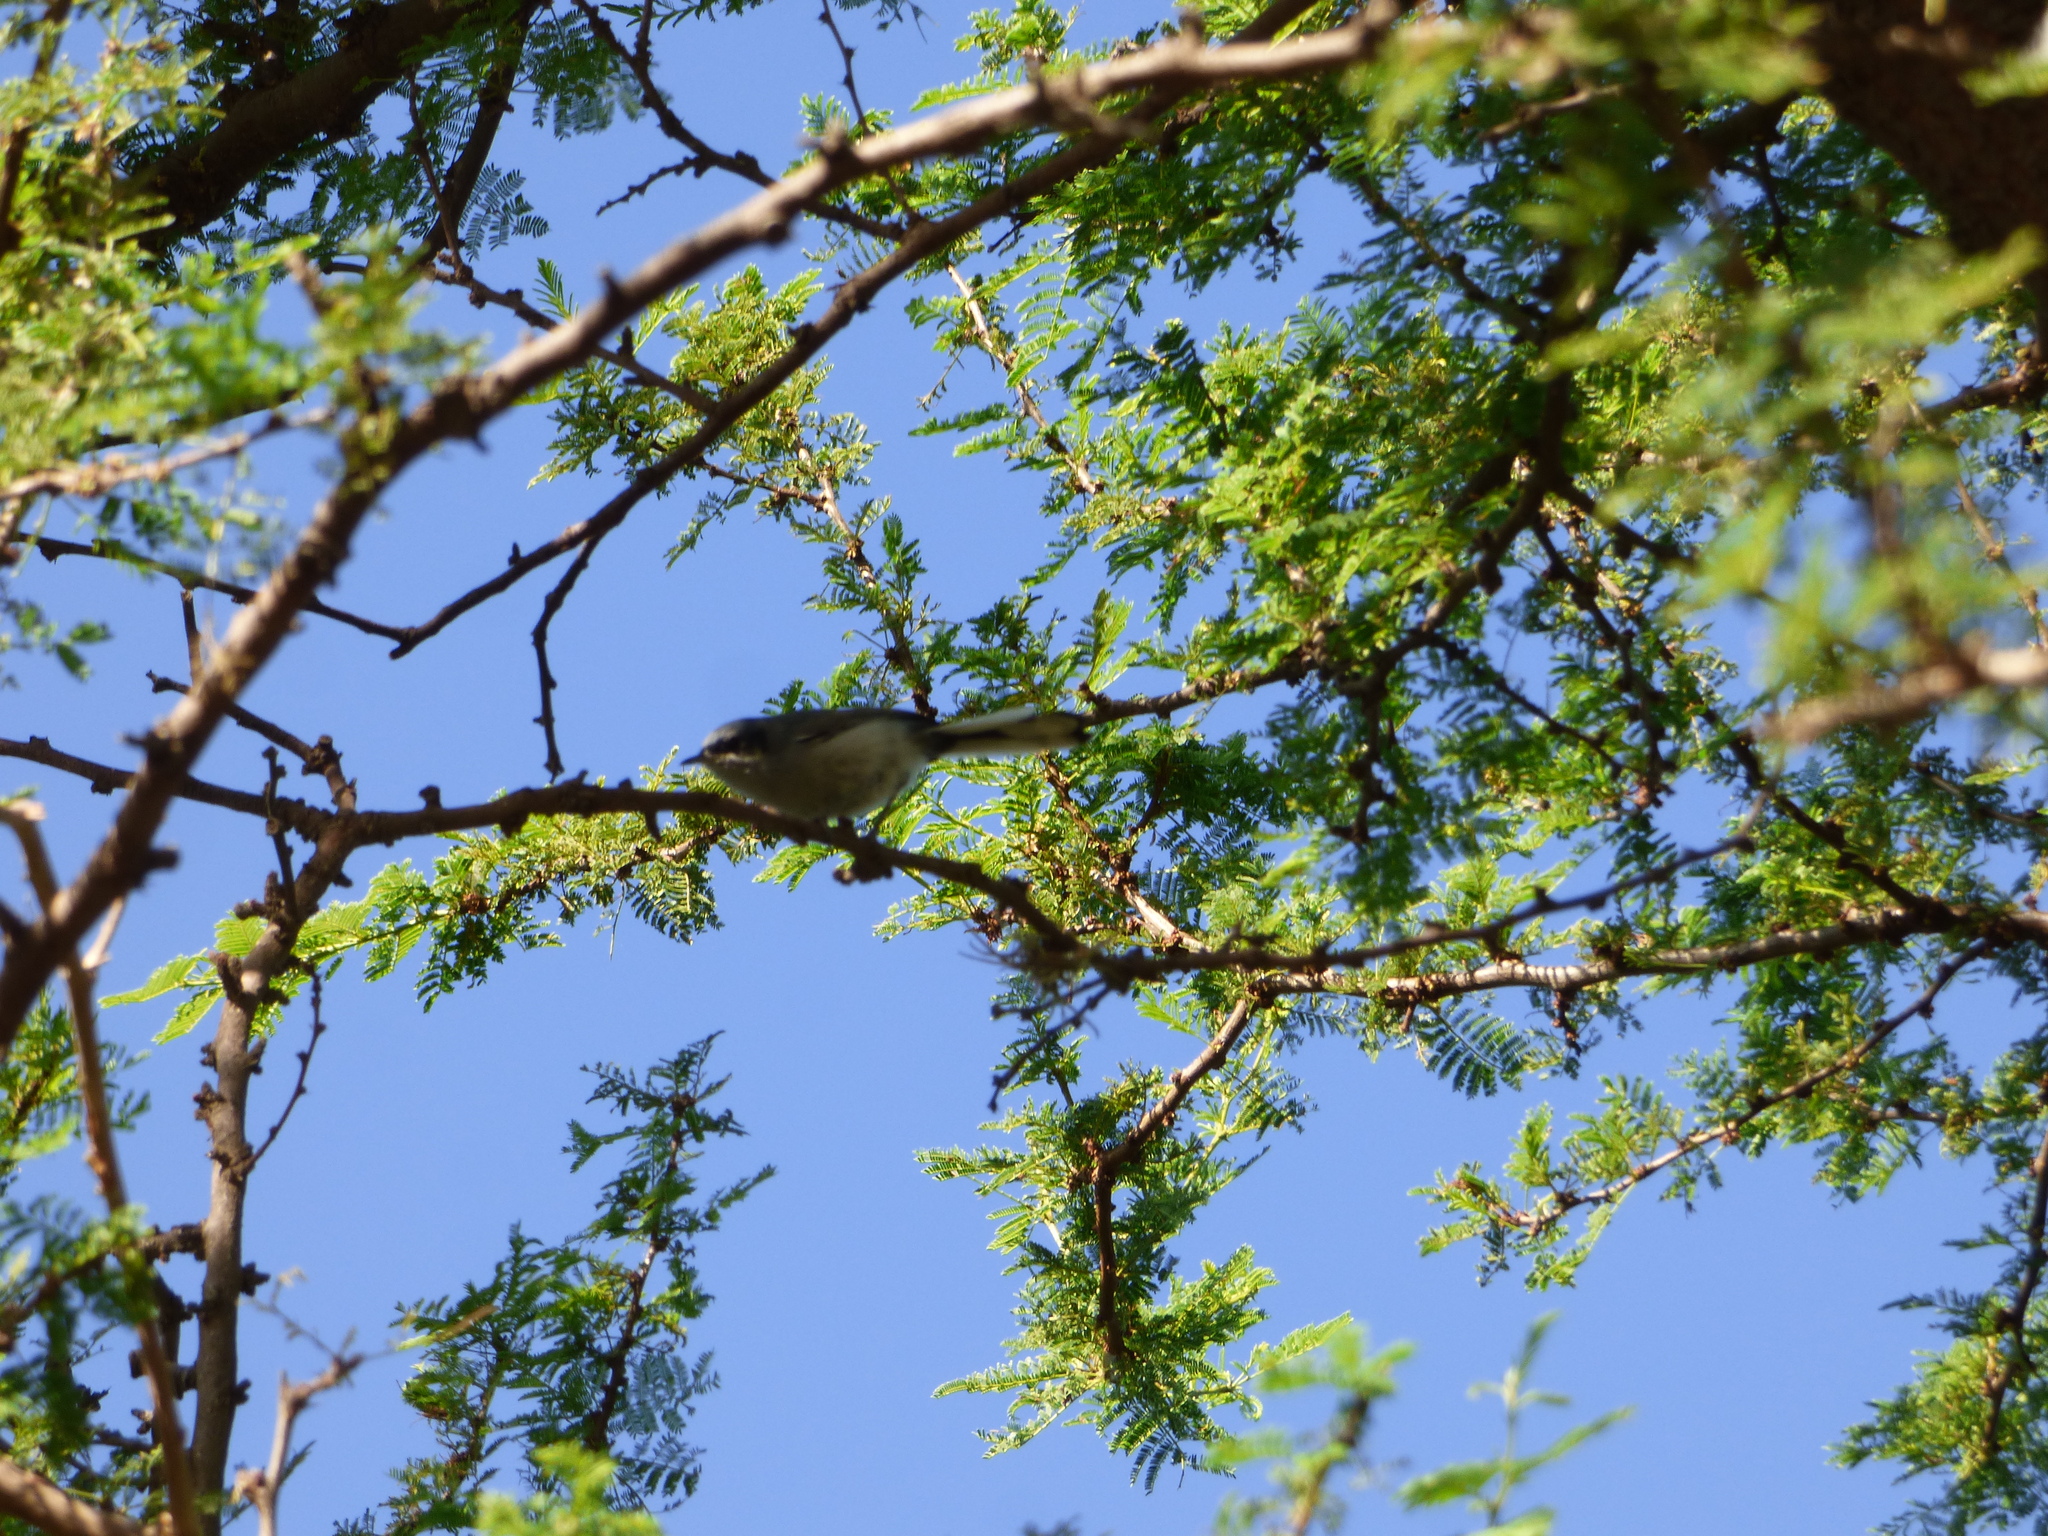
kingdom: Animalia
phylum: Chordata
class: Aves
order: Passeriformes
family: Polioptilidae
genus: Polioptila
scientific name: Polioptila dumicola
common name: Masked gnatcatcher
